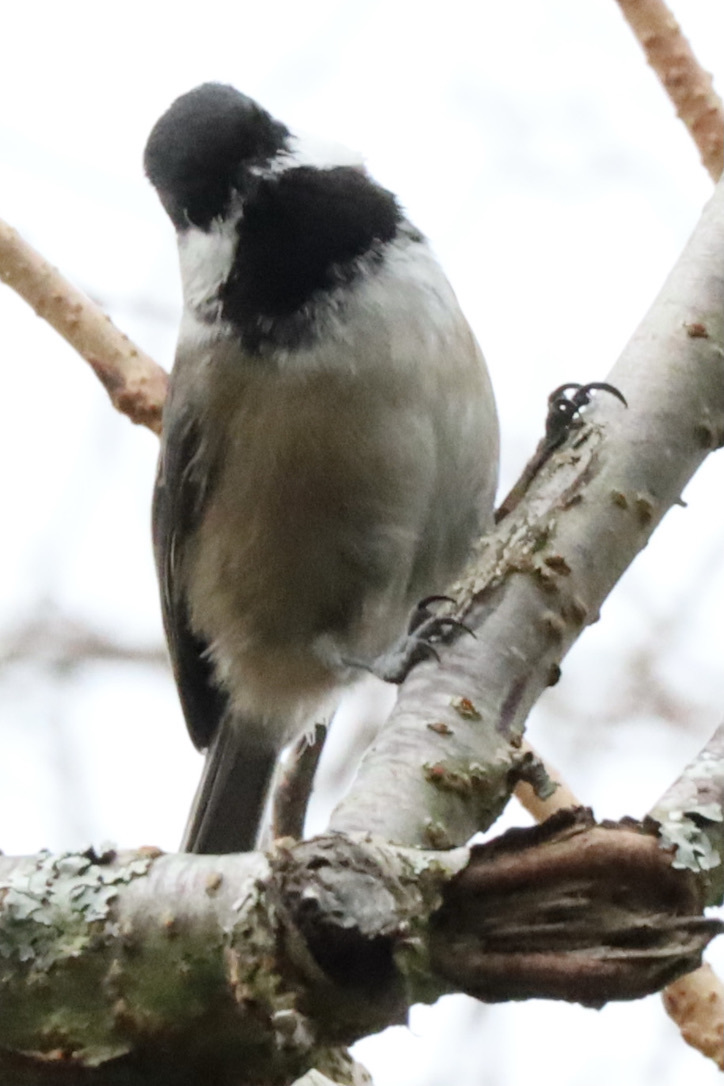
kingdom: Animalia
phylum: Chordata
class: Aves
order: Passeriformes
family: Paridae
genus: Poecile
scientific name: Poecile atricapillus
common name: Black-capped chickadee
